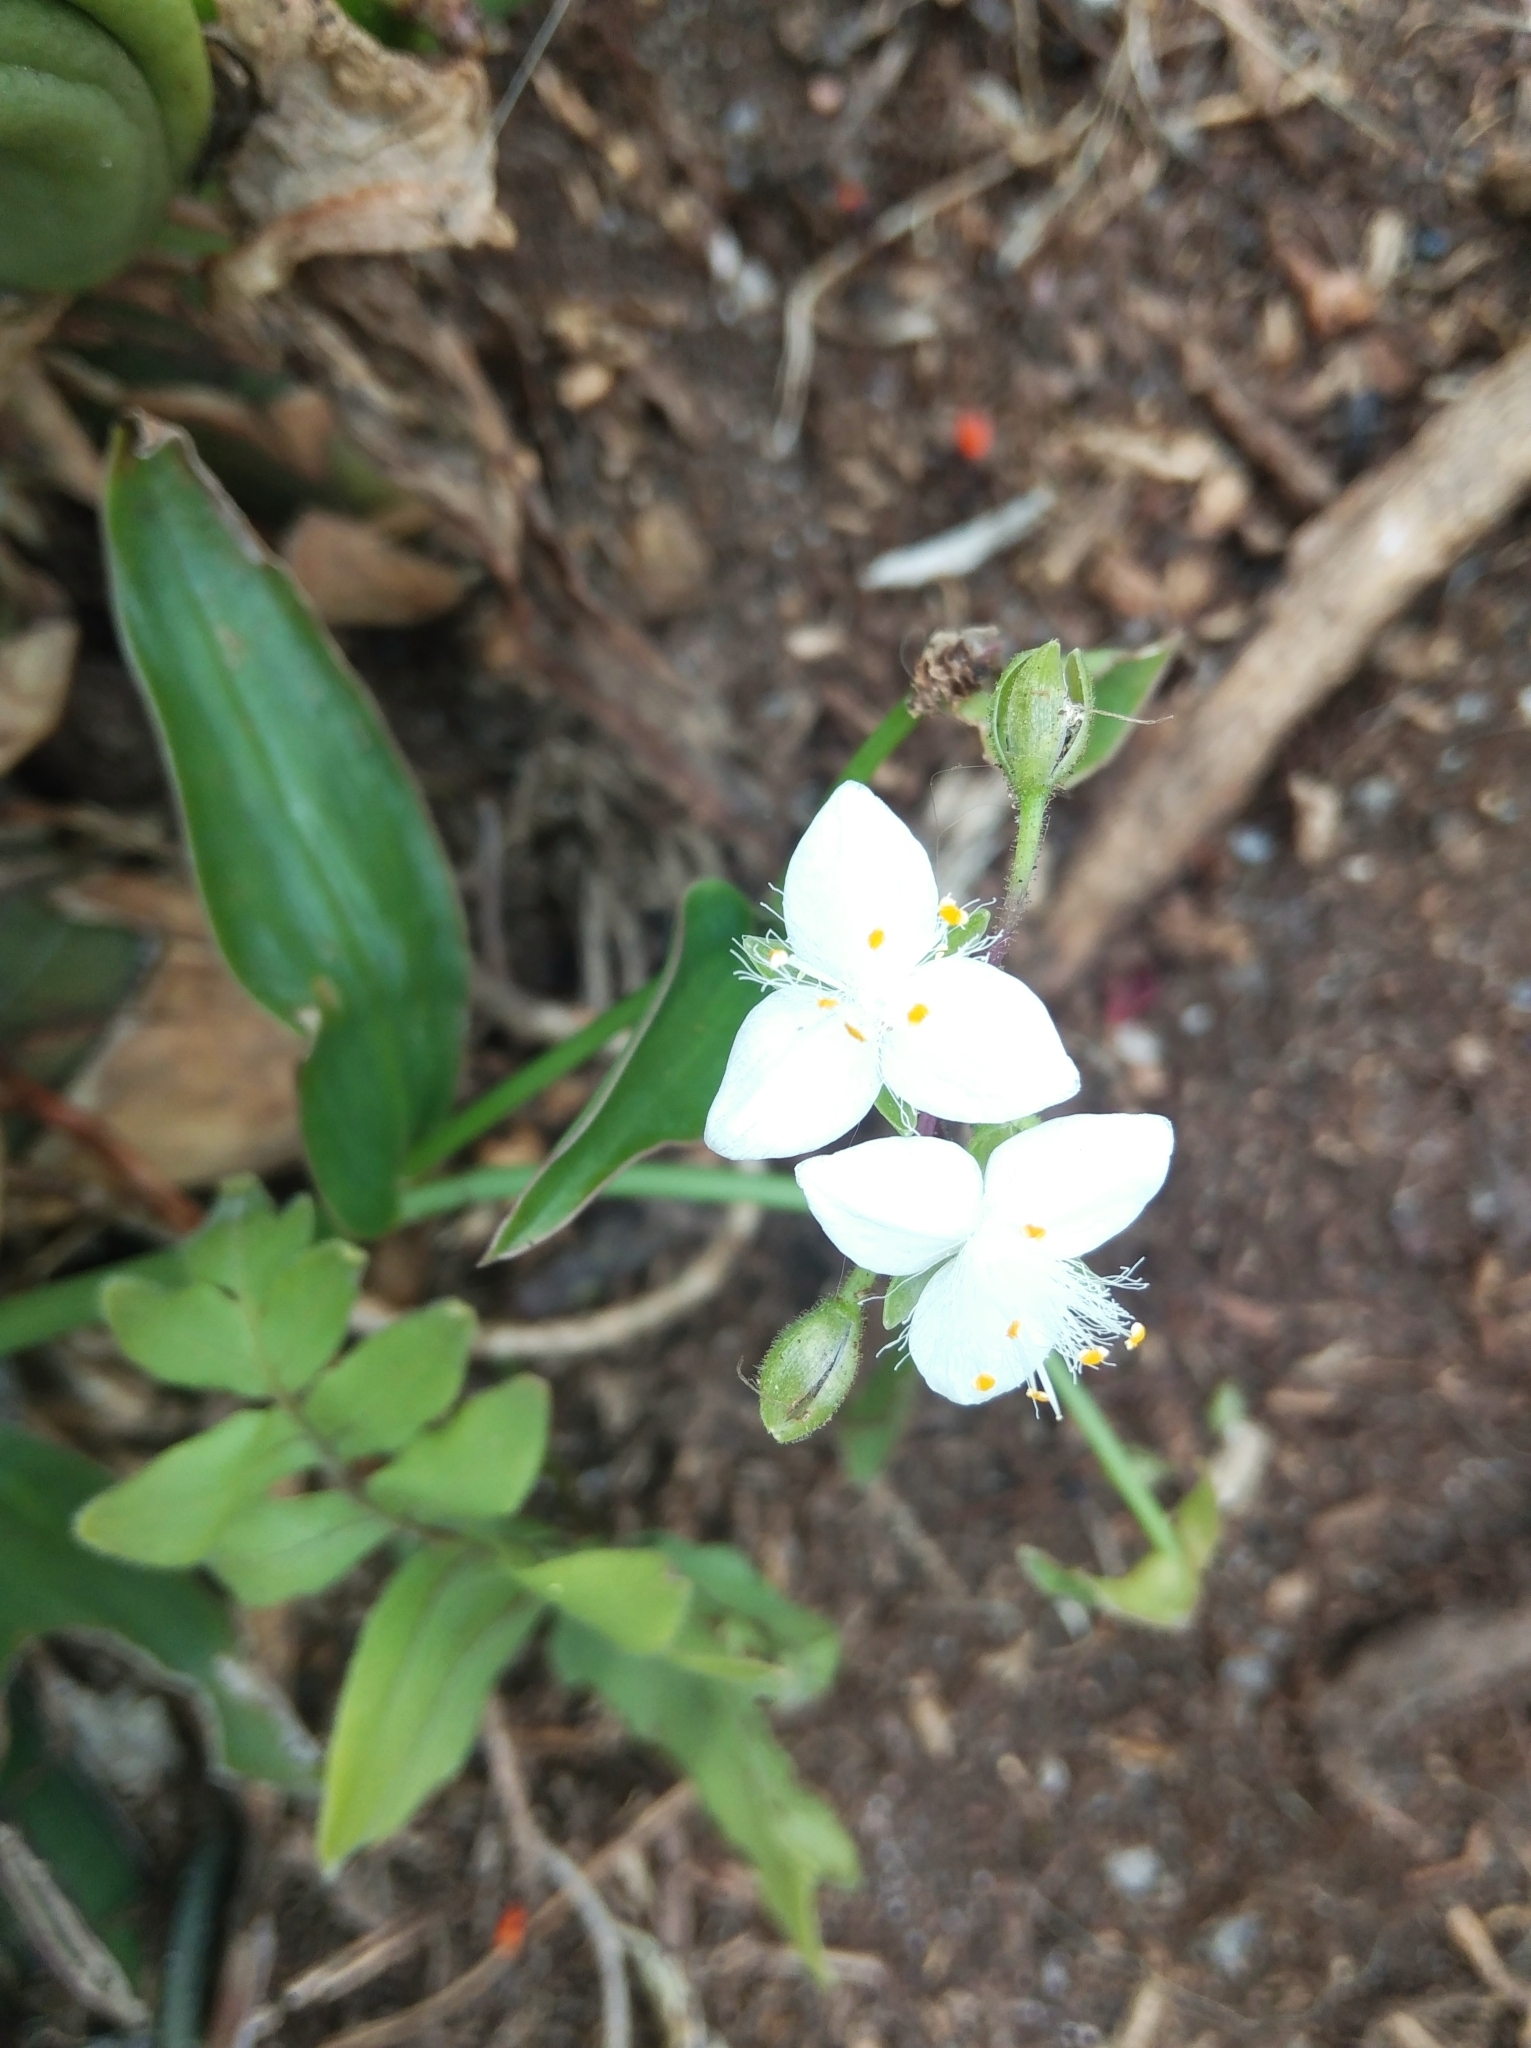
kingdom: Plantae
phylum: Tracheophyta
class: Liliopsida
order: Commelinales
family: Commelinaceae
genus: Tradescantia
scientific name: Tradescantia fluminensis
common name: Wandering-jew
